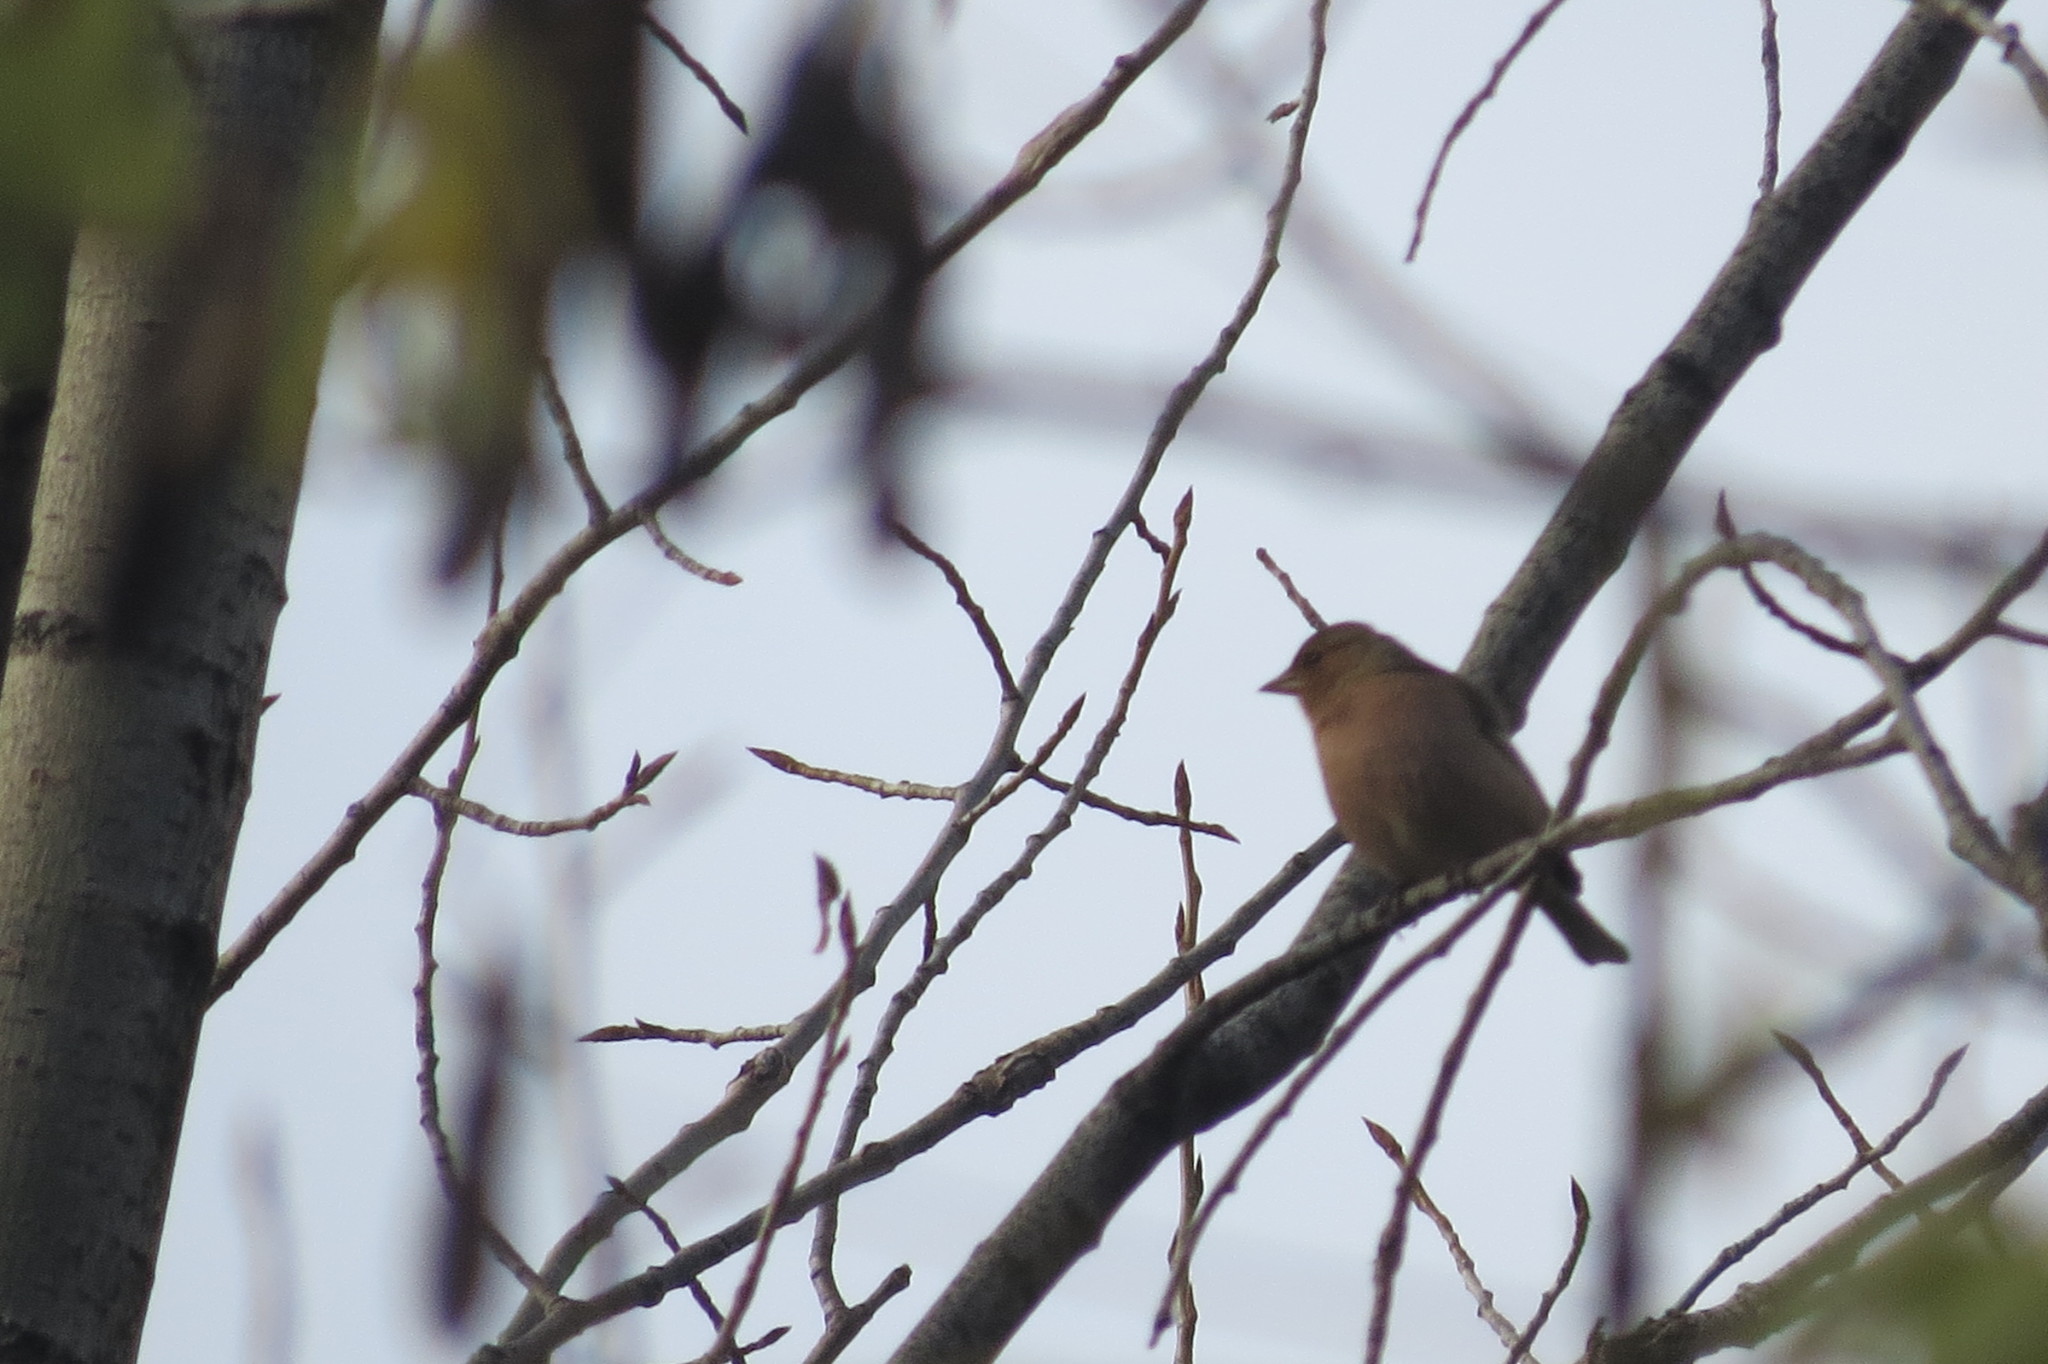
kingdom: Animalia
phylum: Chordata
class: Aves
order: Passeriformes
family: Fringillidae
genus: Fringilla
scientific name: Fringilla coelebs
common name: Common chaffinch
